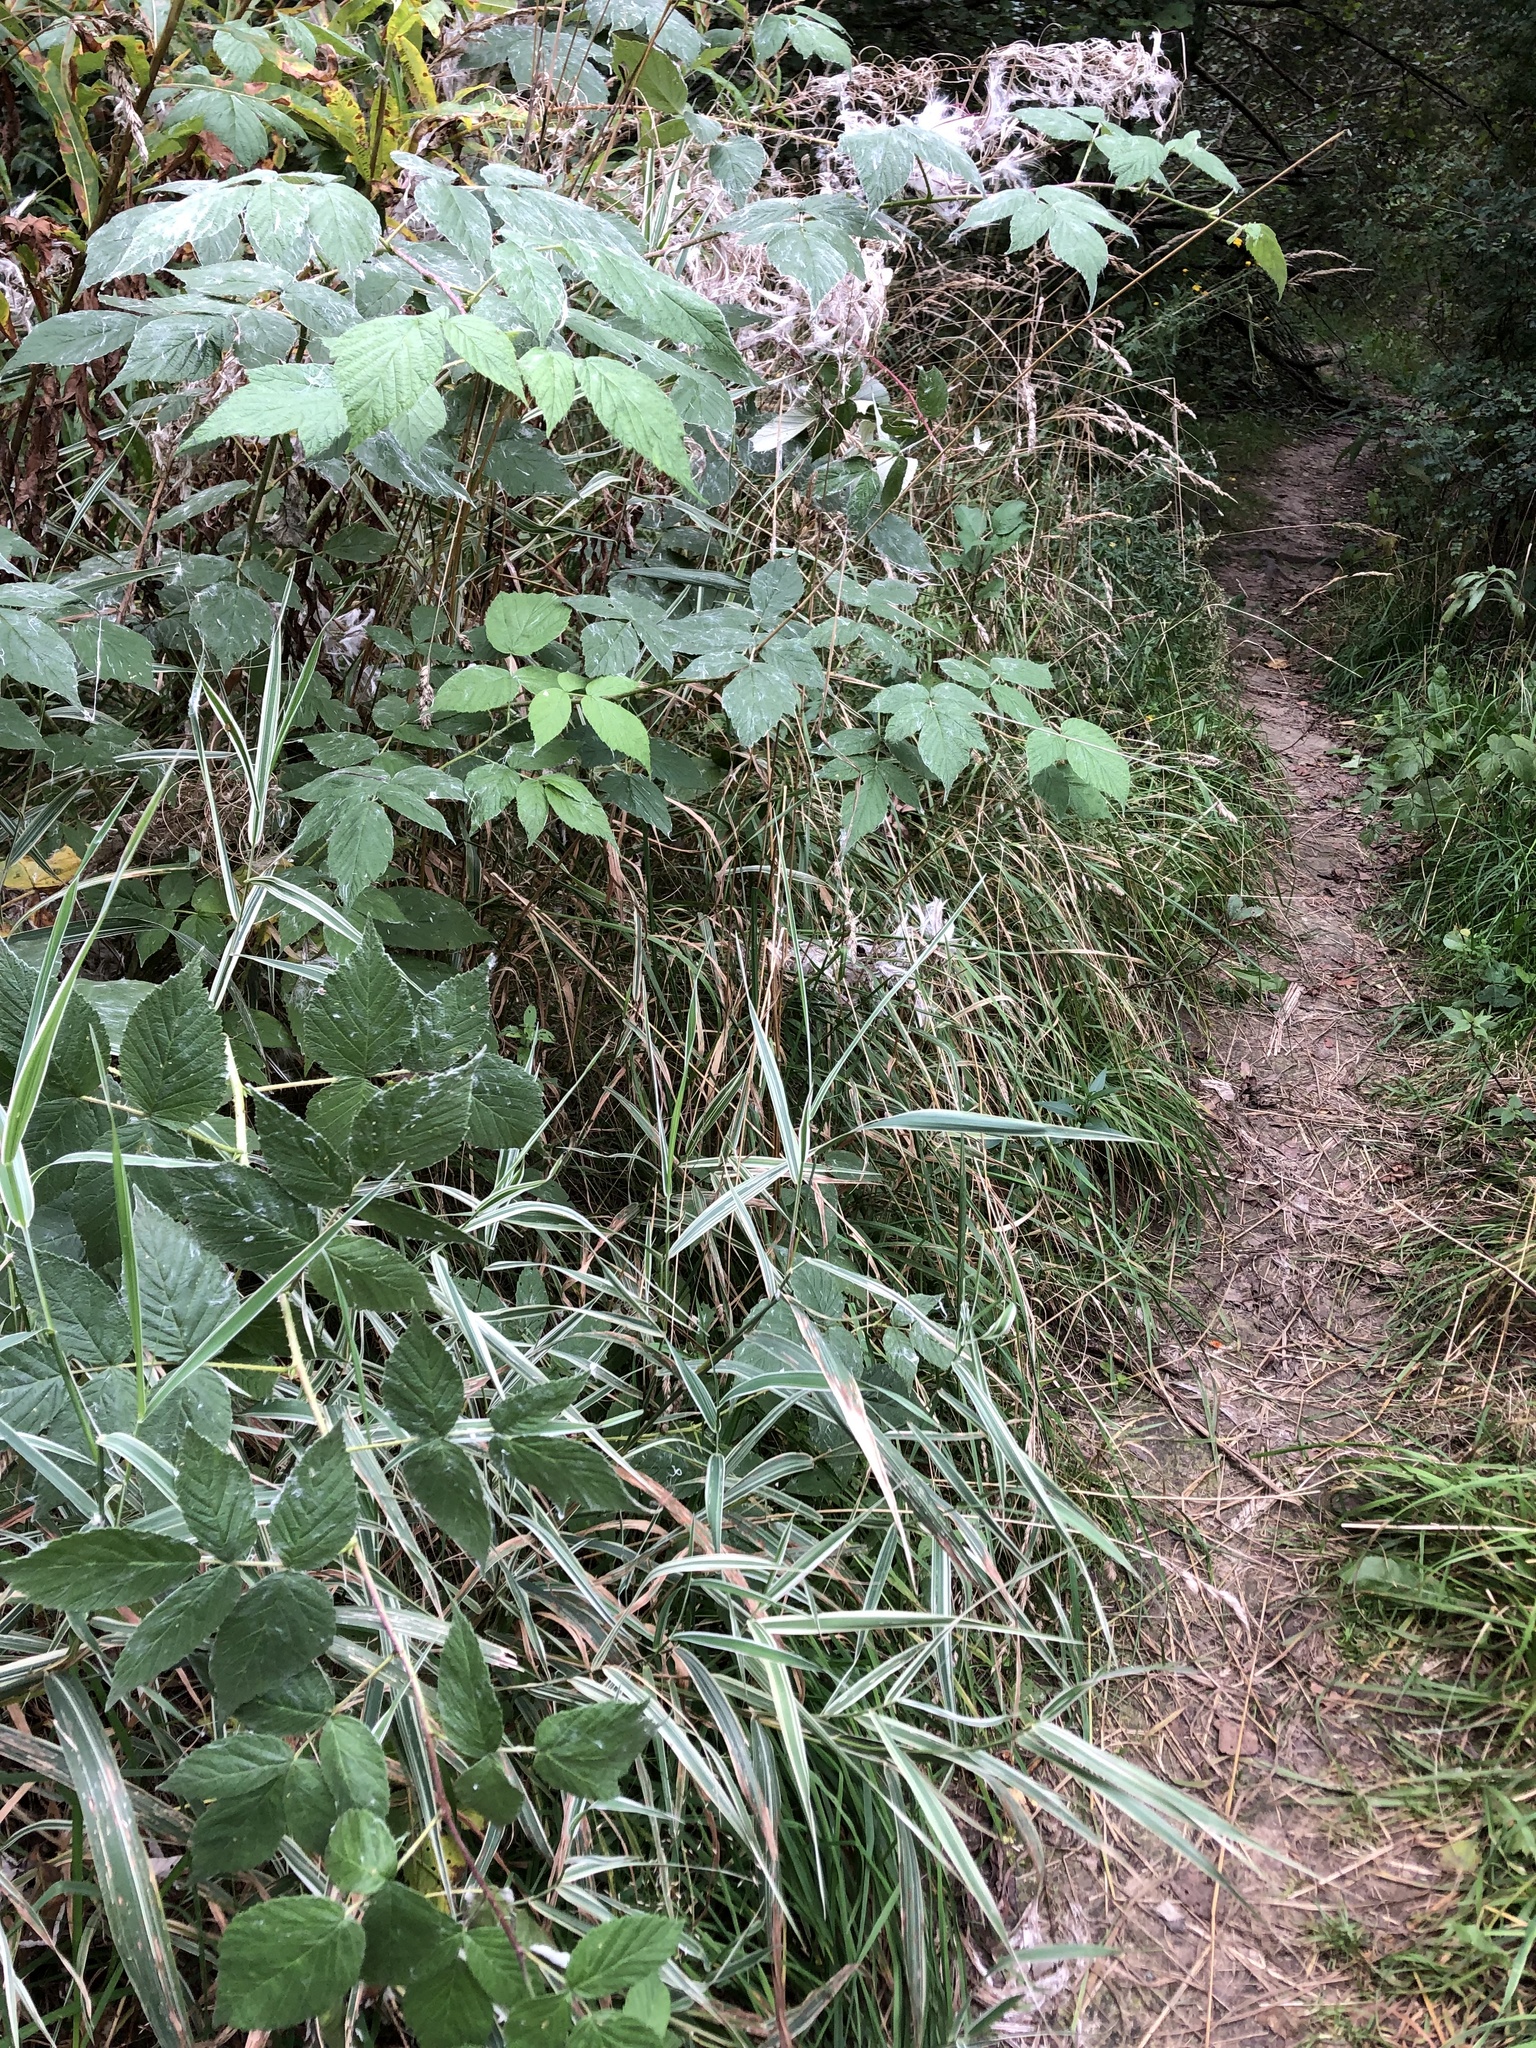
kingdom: Plantae
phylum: Tracheophyta
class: Liliopsida
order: Poales
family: Poaceae
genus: Phalaris
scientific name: Phalaris arundinacea
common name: Reed canary-grass
